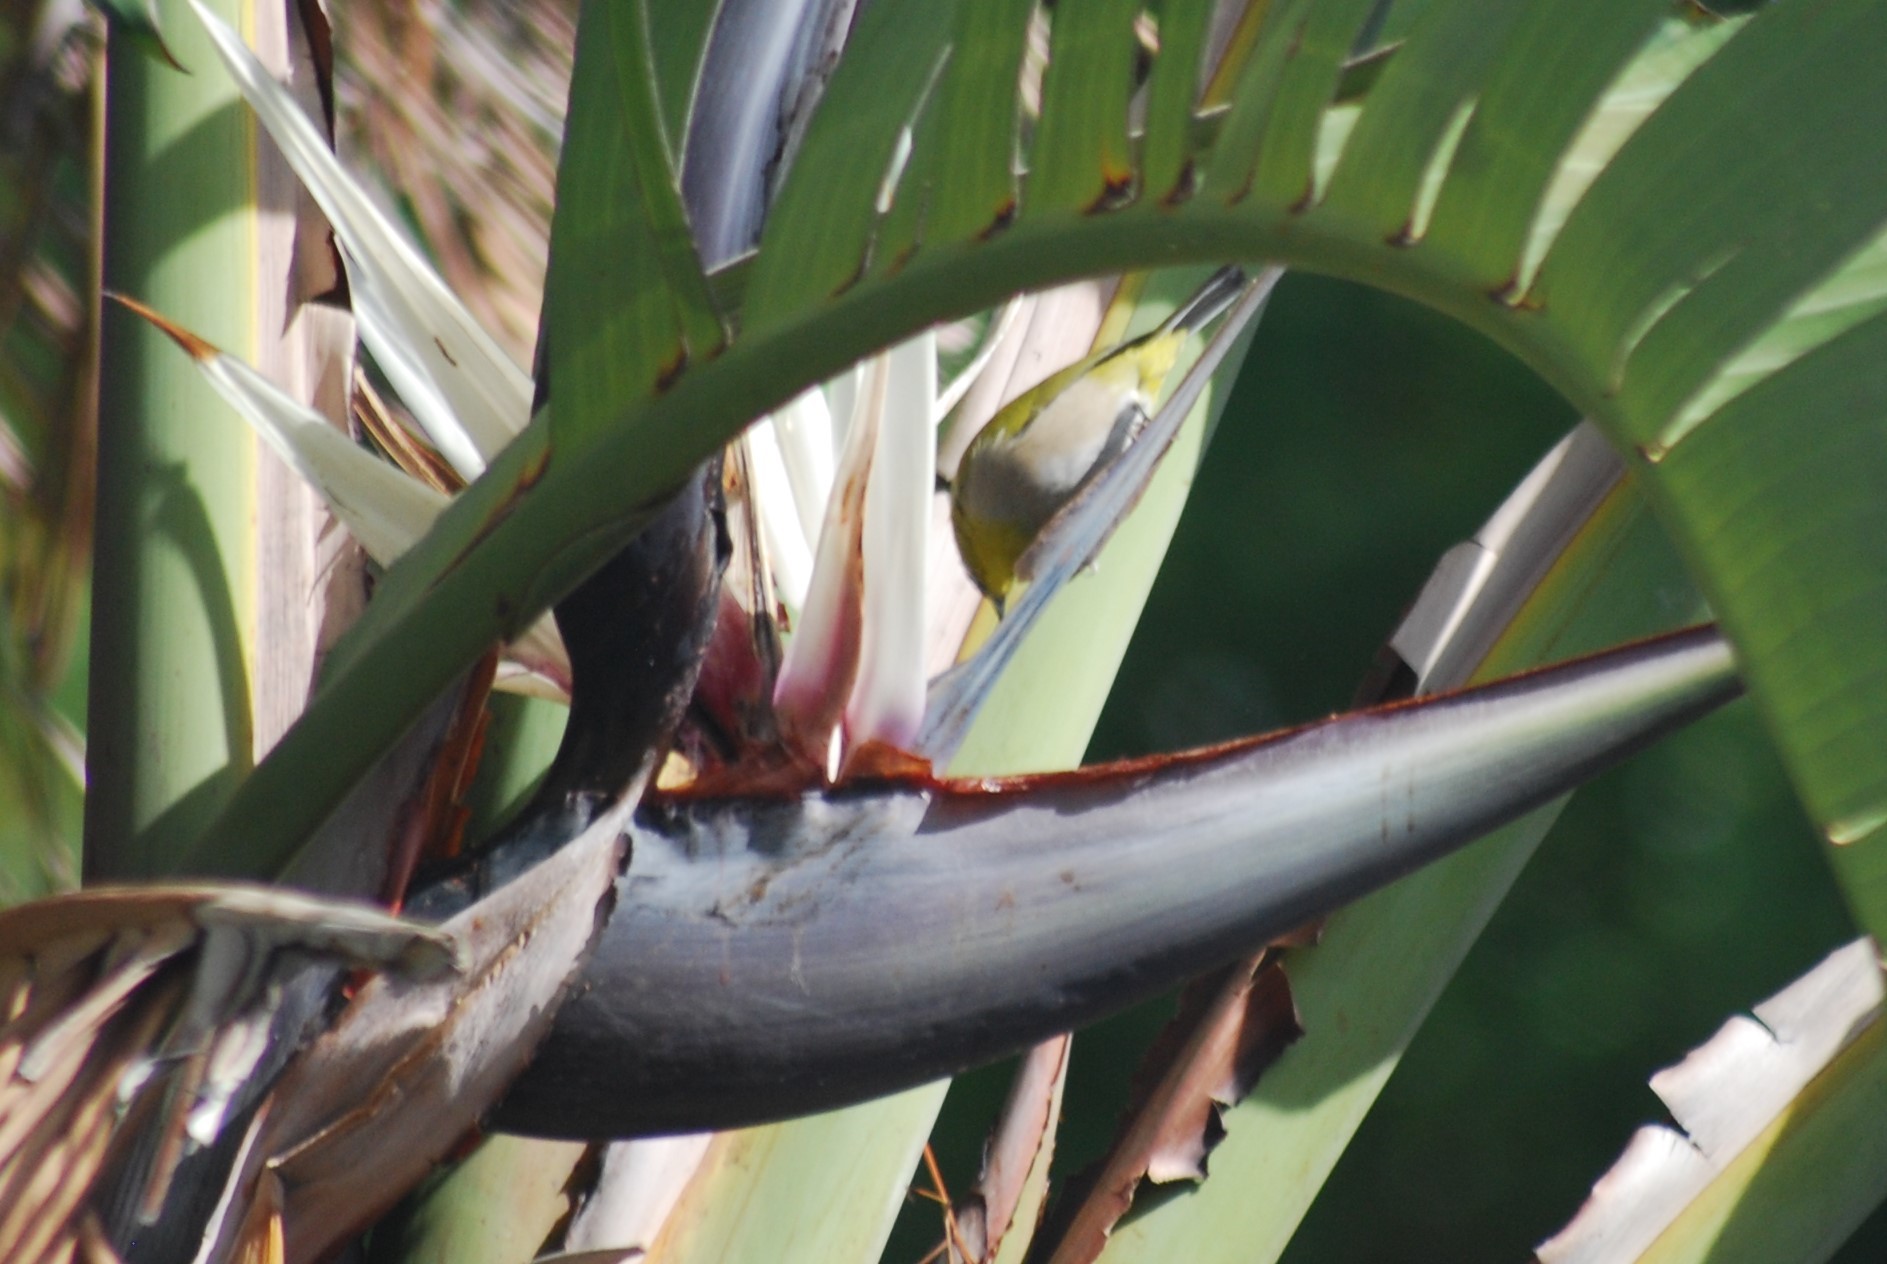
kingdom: Animalia
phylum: Chordata
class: Aves
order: Passeriformes
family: Zosteropidae
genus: Zosterops
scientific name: Zosterops virens
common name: Cape white-eye
